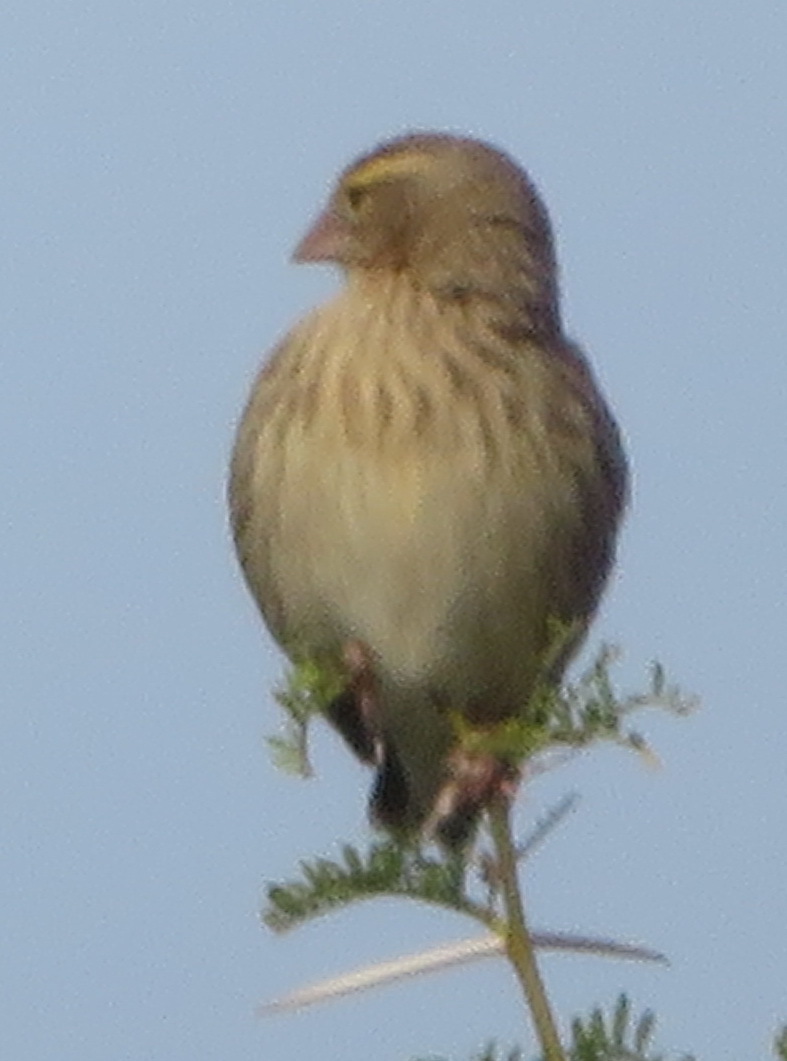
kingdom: Animalia
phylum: Chordata
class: Aves
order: Passeriformes
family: Ploceidae
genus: Euplectes
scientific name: Euplectes orix
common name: Southern red bishop
